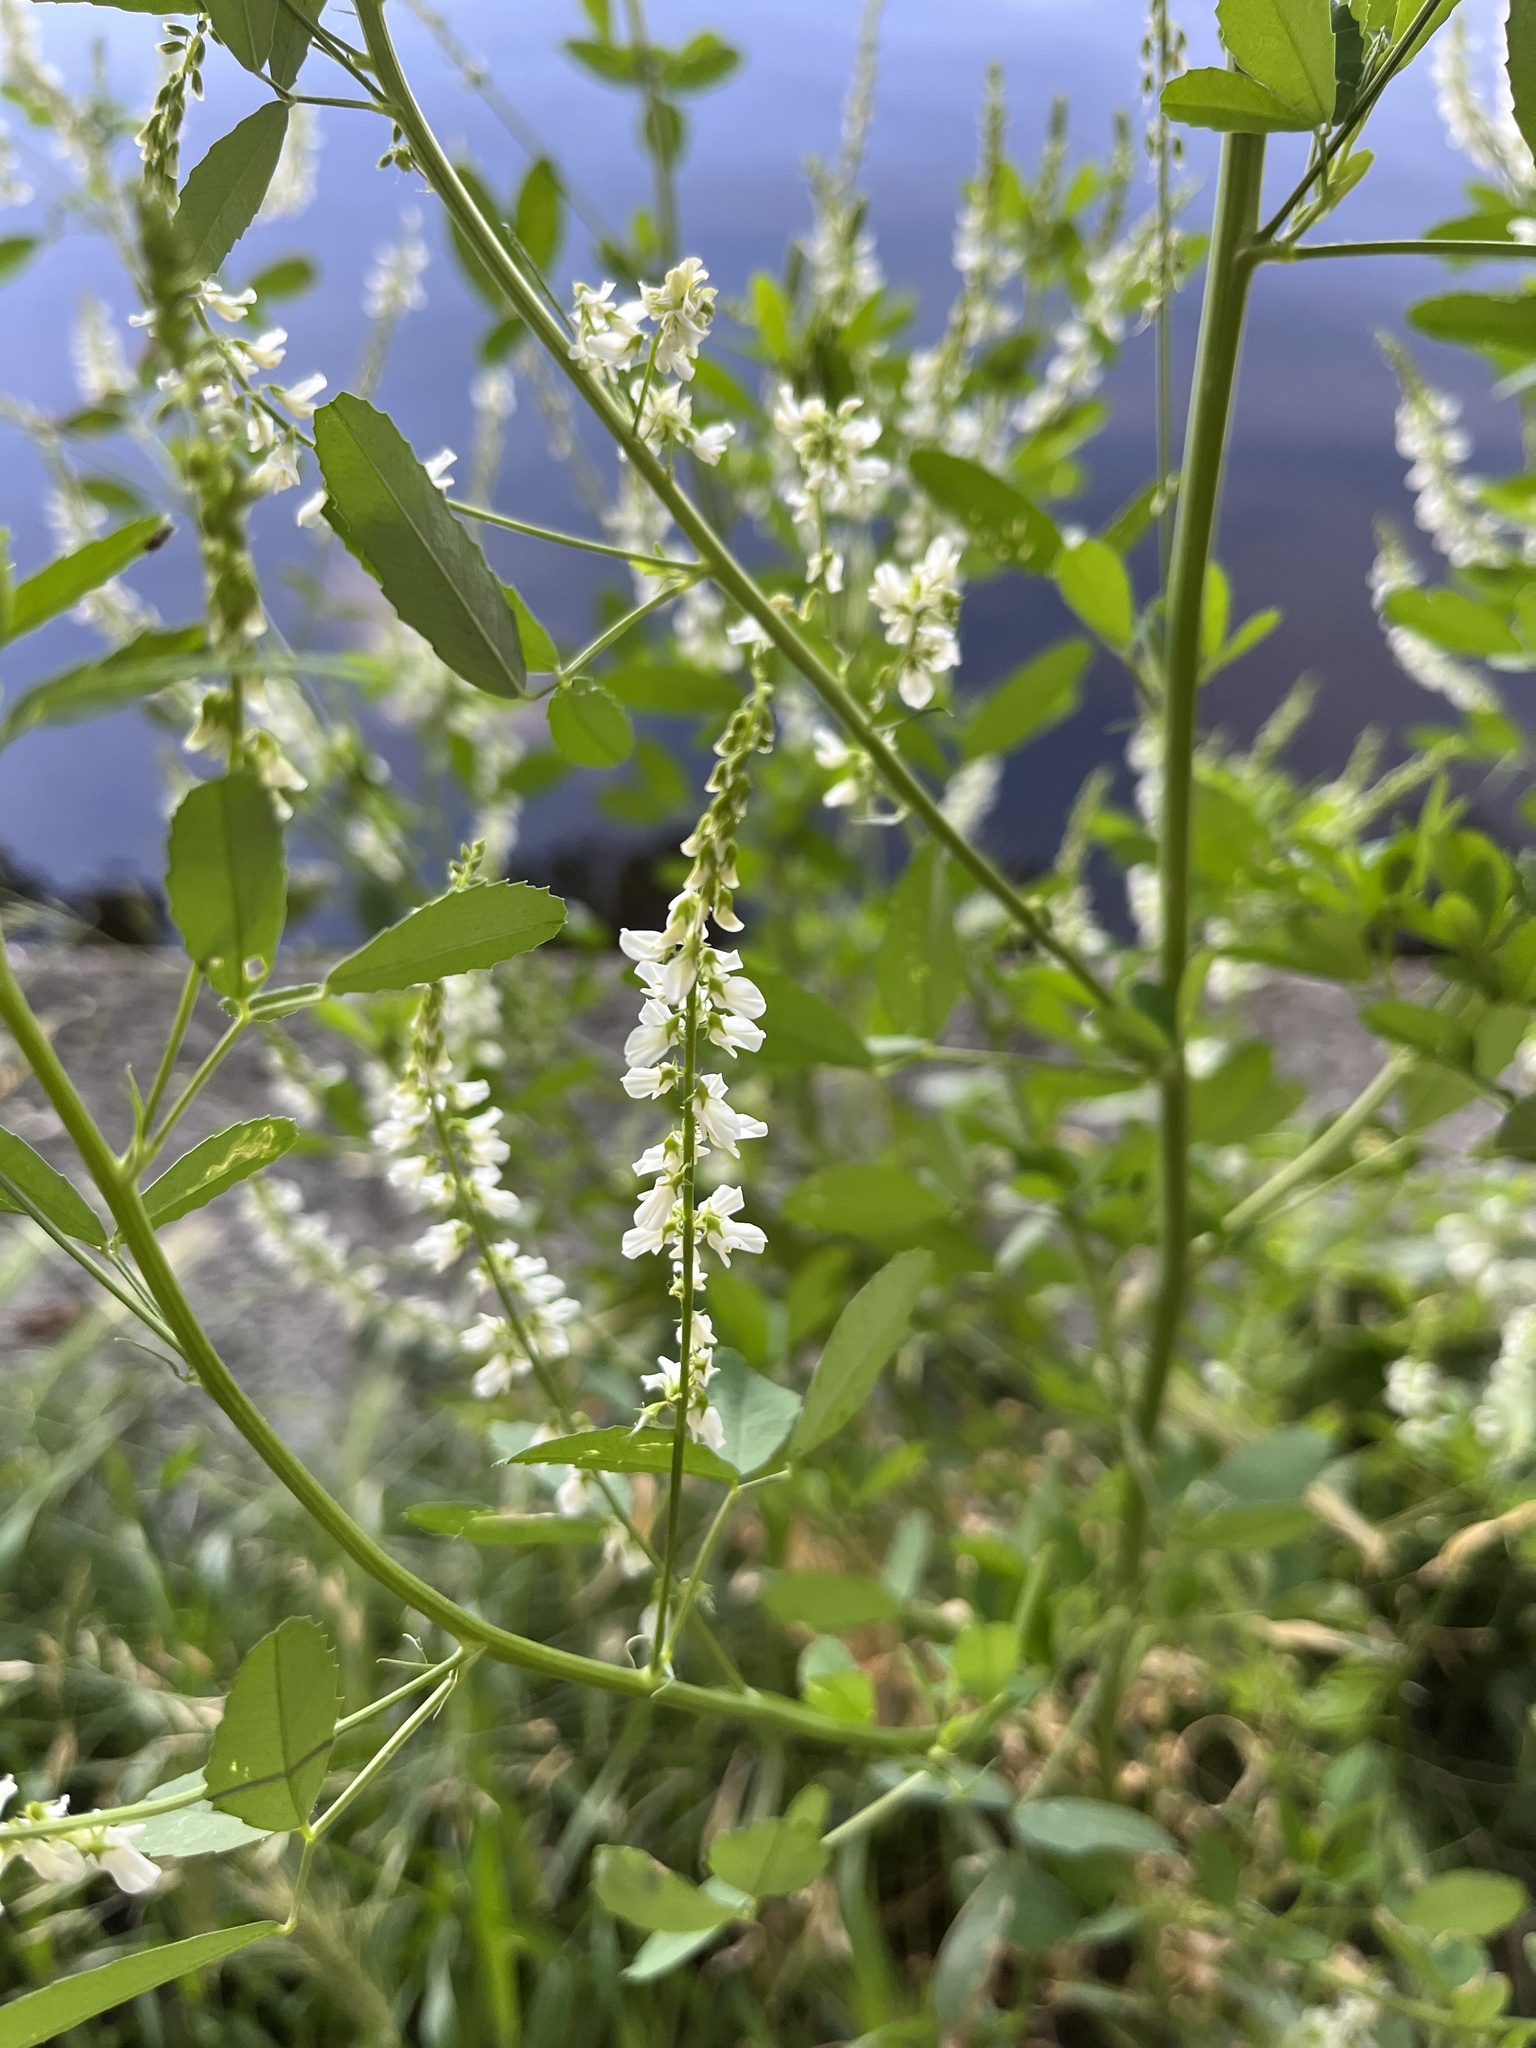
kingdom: Plantae
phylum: Tracheophyta
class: Magnoliopsida
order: Fabales
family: Fabaceae
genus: Melilotus
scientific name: Melilotus albus
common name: White melilot
